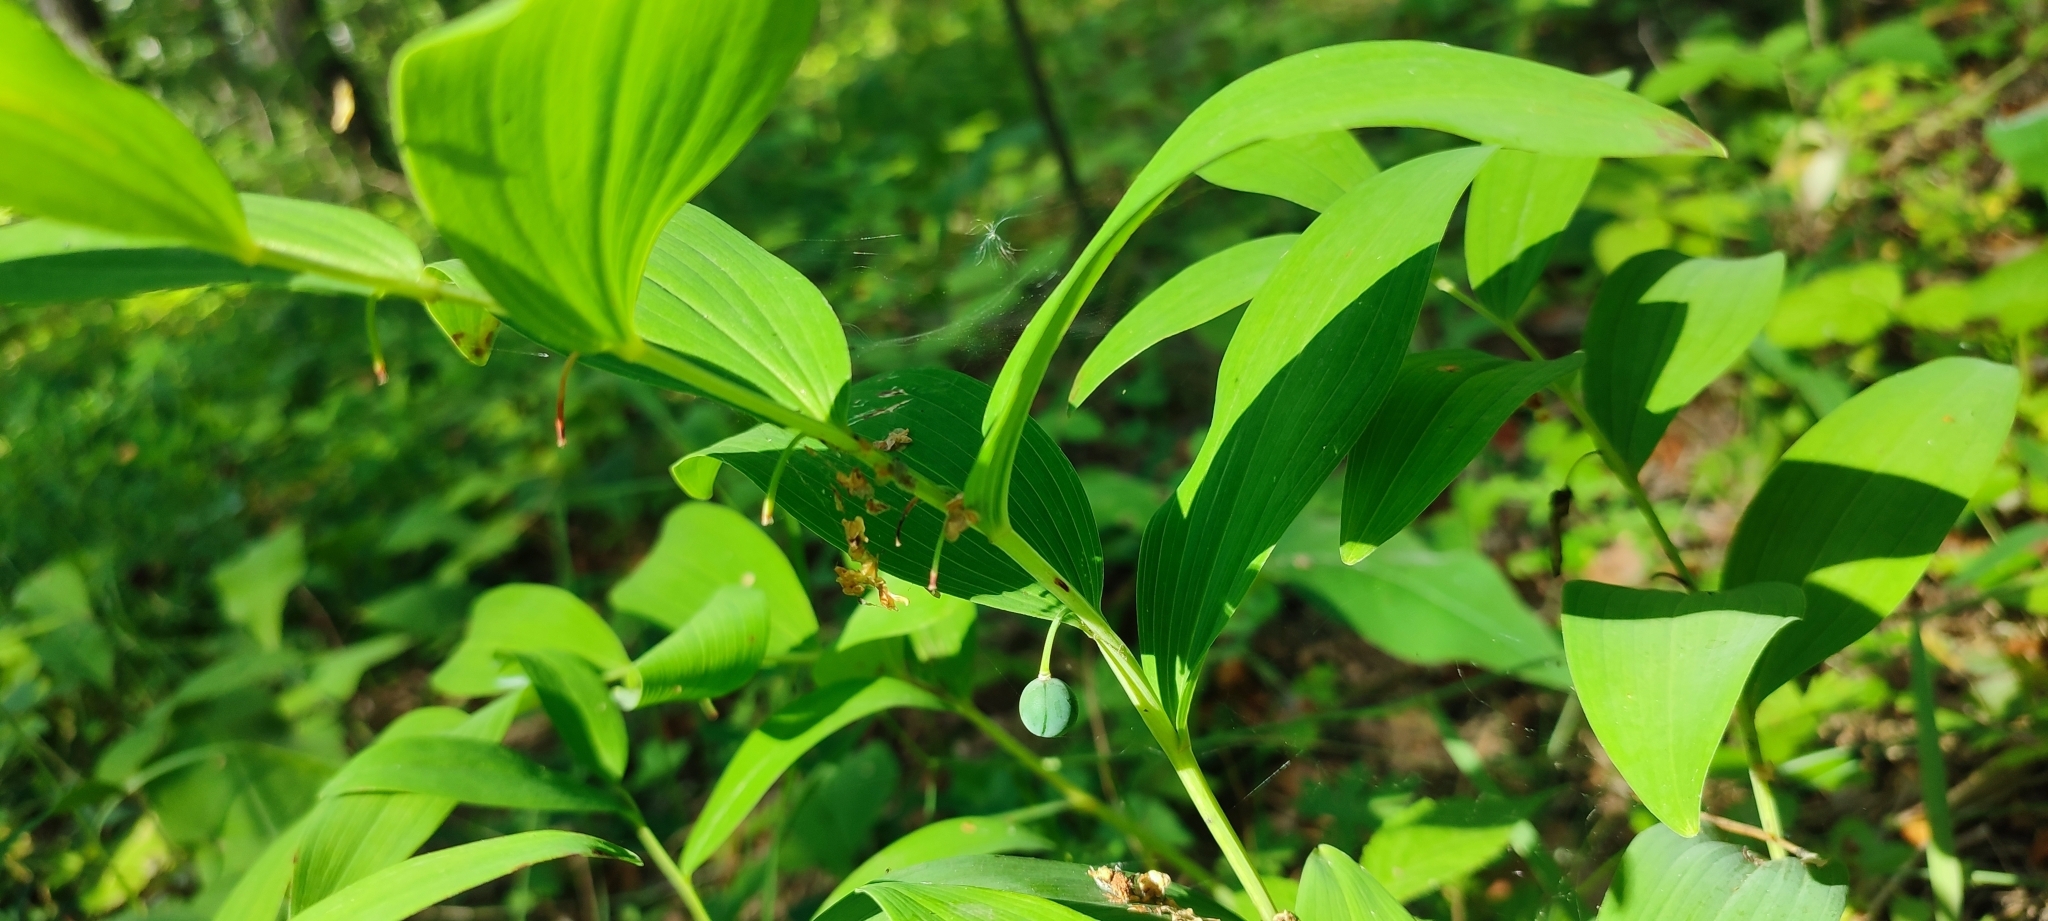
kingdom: Plantae
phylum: Tracheophyta
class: Liliopsida
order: Asparagales
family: Asparagaceae
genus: Polygonatum
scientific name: Polygonatum odoratum
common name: Angular solomon's-seal
